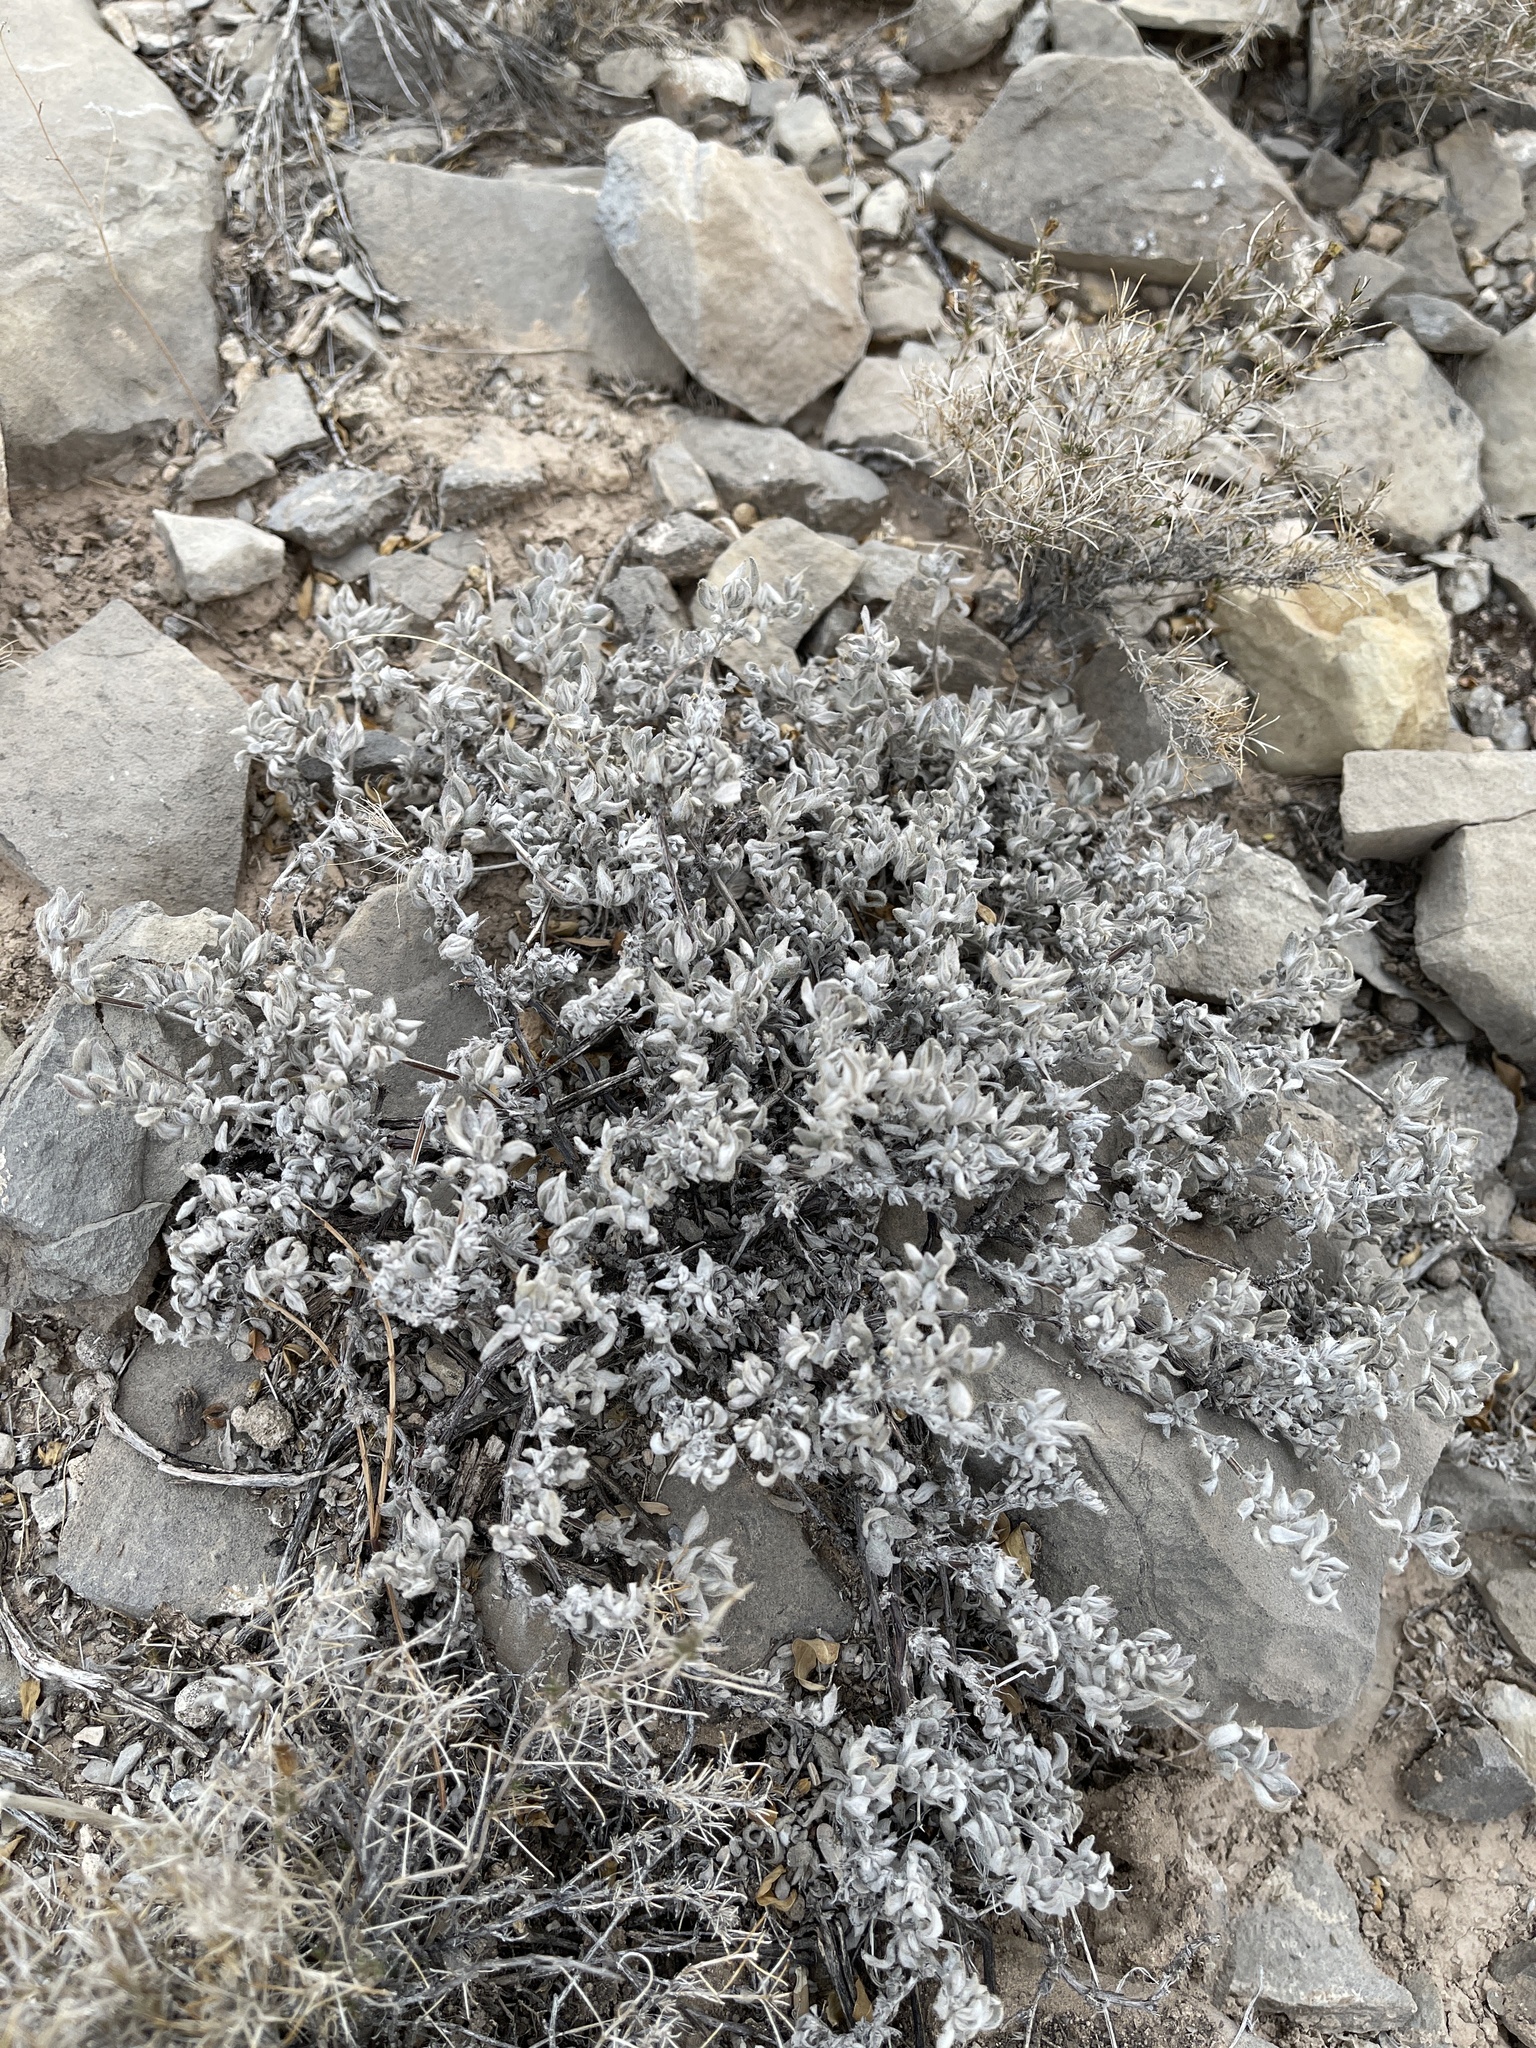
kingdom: Plantae
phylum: Tracheophyta
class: Magnoliopsida
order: Boraginales
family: Ehretiaceae
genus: Tiquilia
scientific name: Tiquilia canescens
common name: Hairy tiquilia
